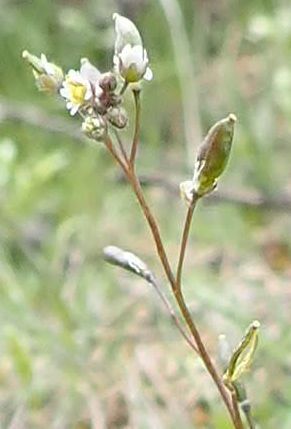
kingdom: Plantae
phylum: Tracheophyta
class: Magnoliopsida
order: Brassicales
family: Brassicaceae
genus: Draba
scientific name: Draba verna
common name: Spring draba
